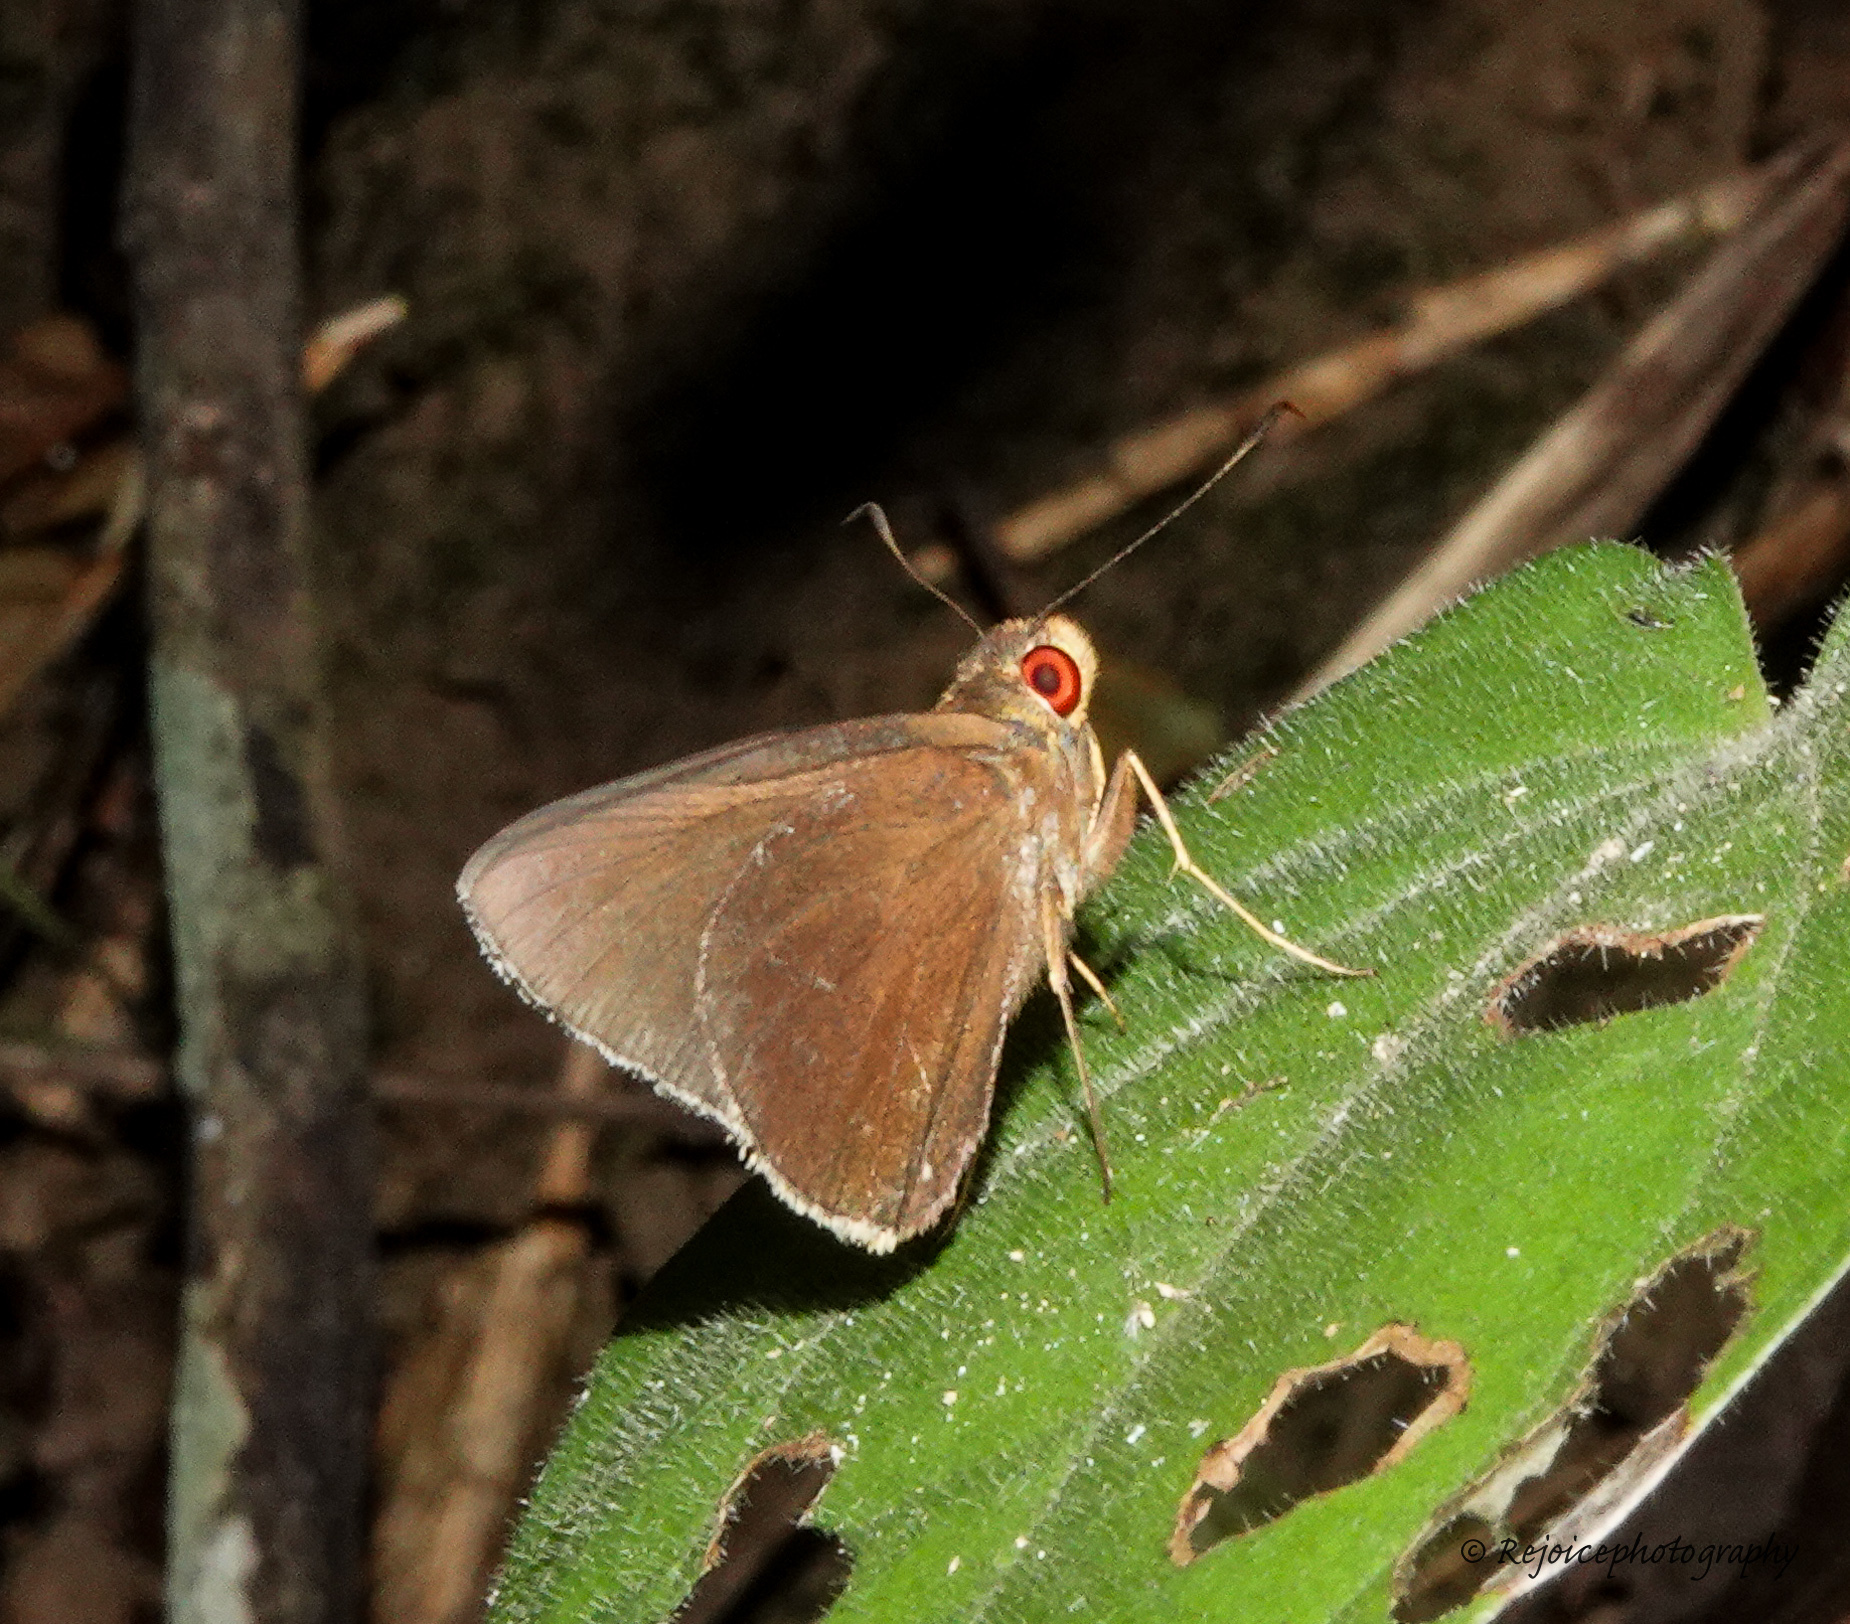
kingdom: Animalia
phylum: Arthropoda
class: Insecta
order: Lepidoptera
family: Hesperiidae
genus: Matapa
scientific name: Matapa aria
